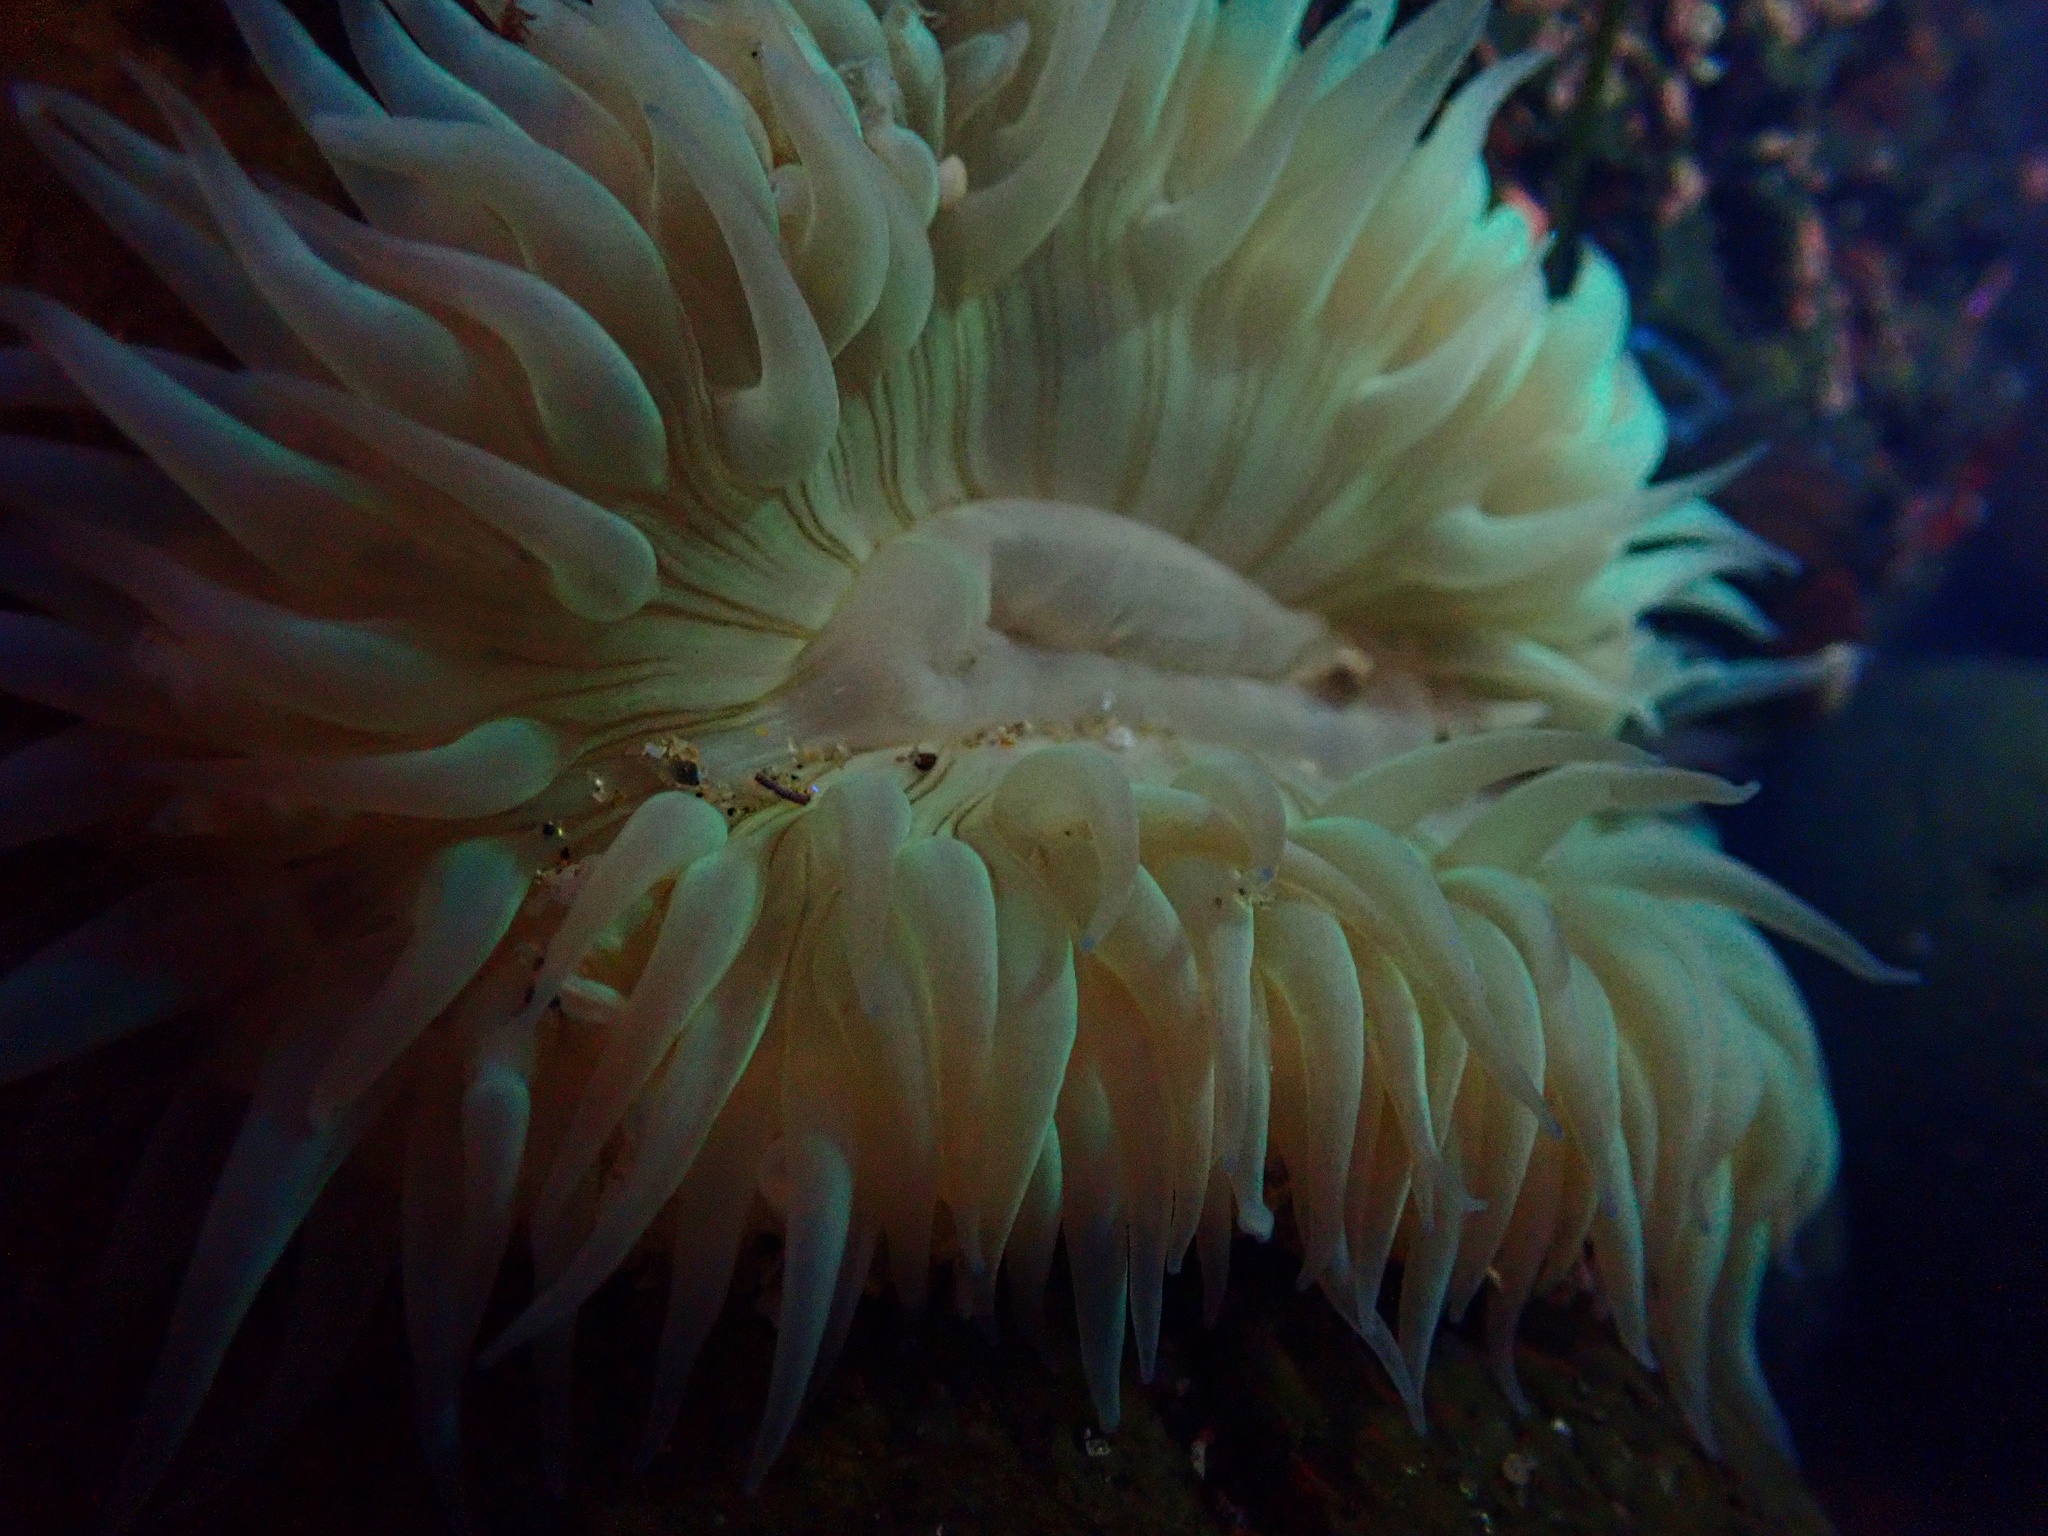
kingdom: Animalia
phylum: Cnidaria
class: Anthozoa
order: Actiniaria
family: Actiniidae
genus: Anthopleura
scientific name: Anthopleura sola
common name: Sun anemone
